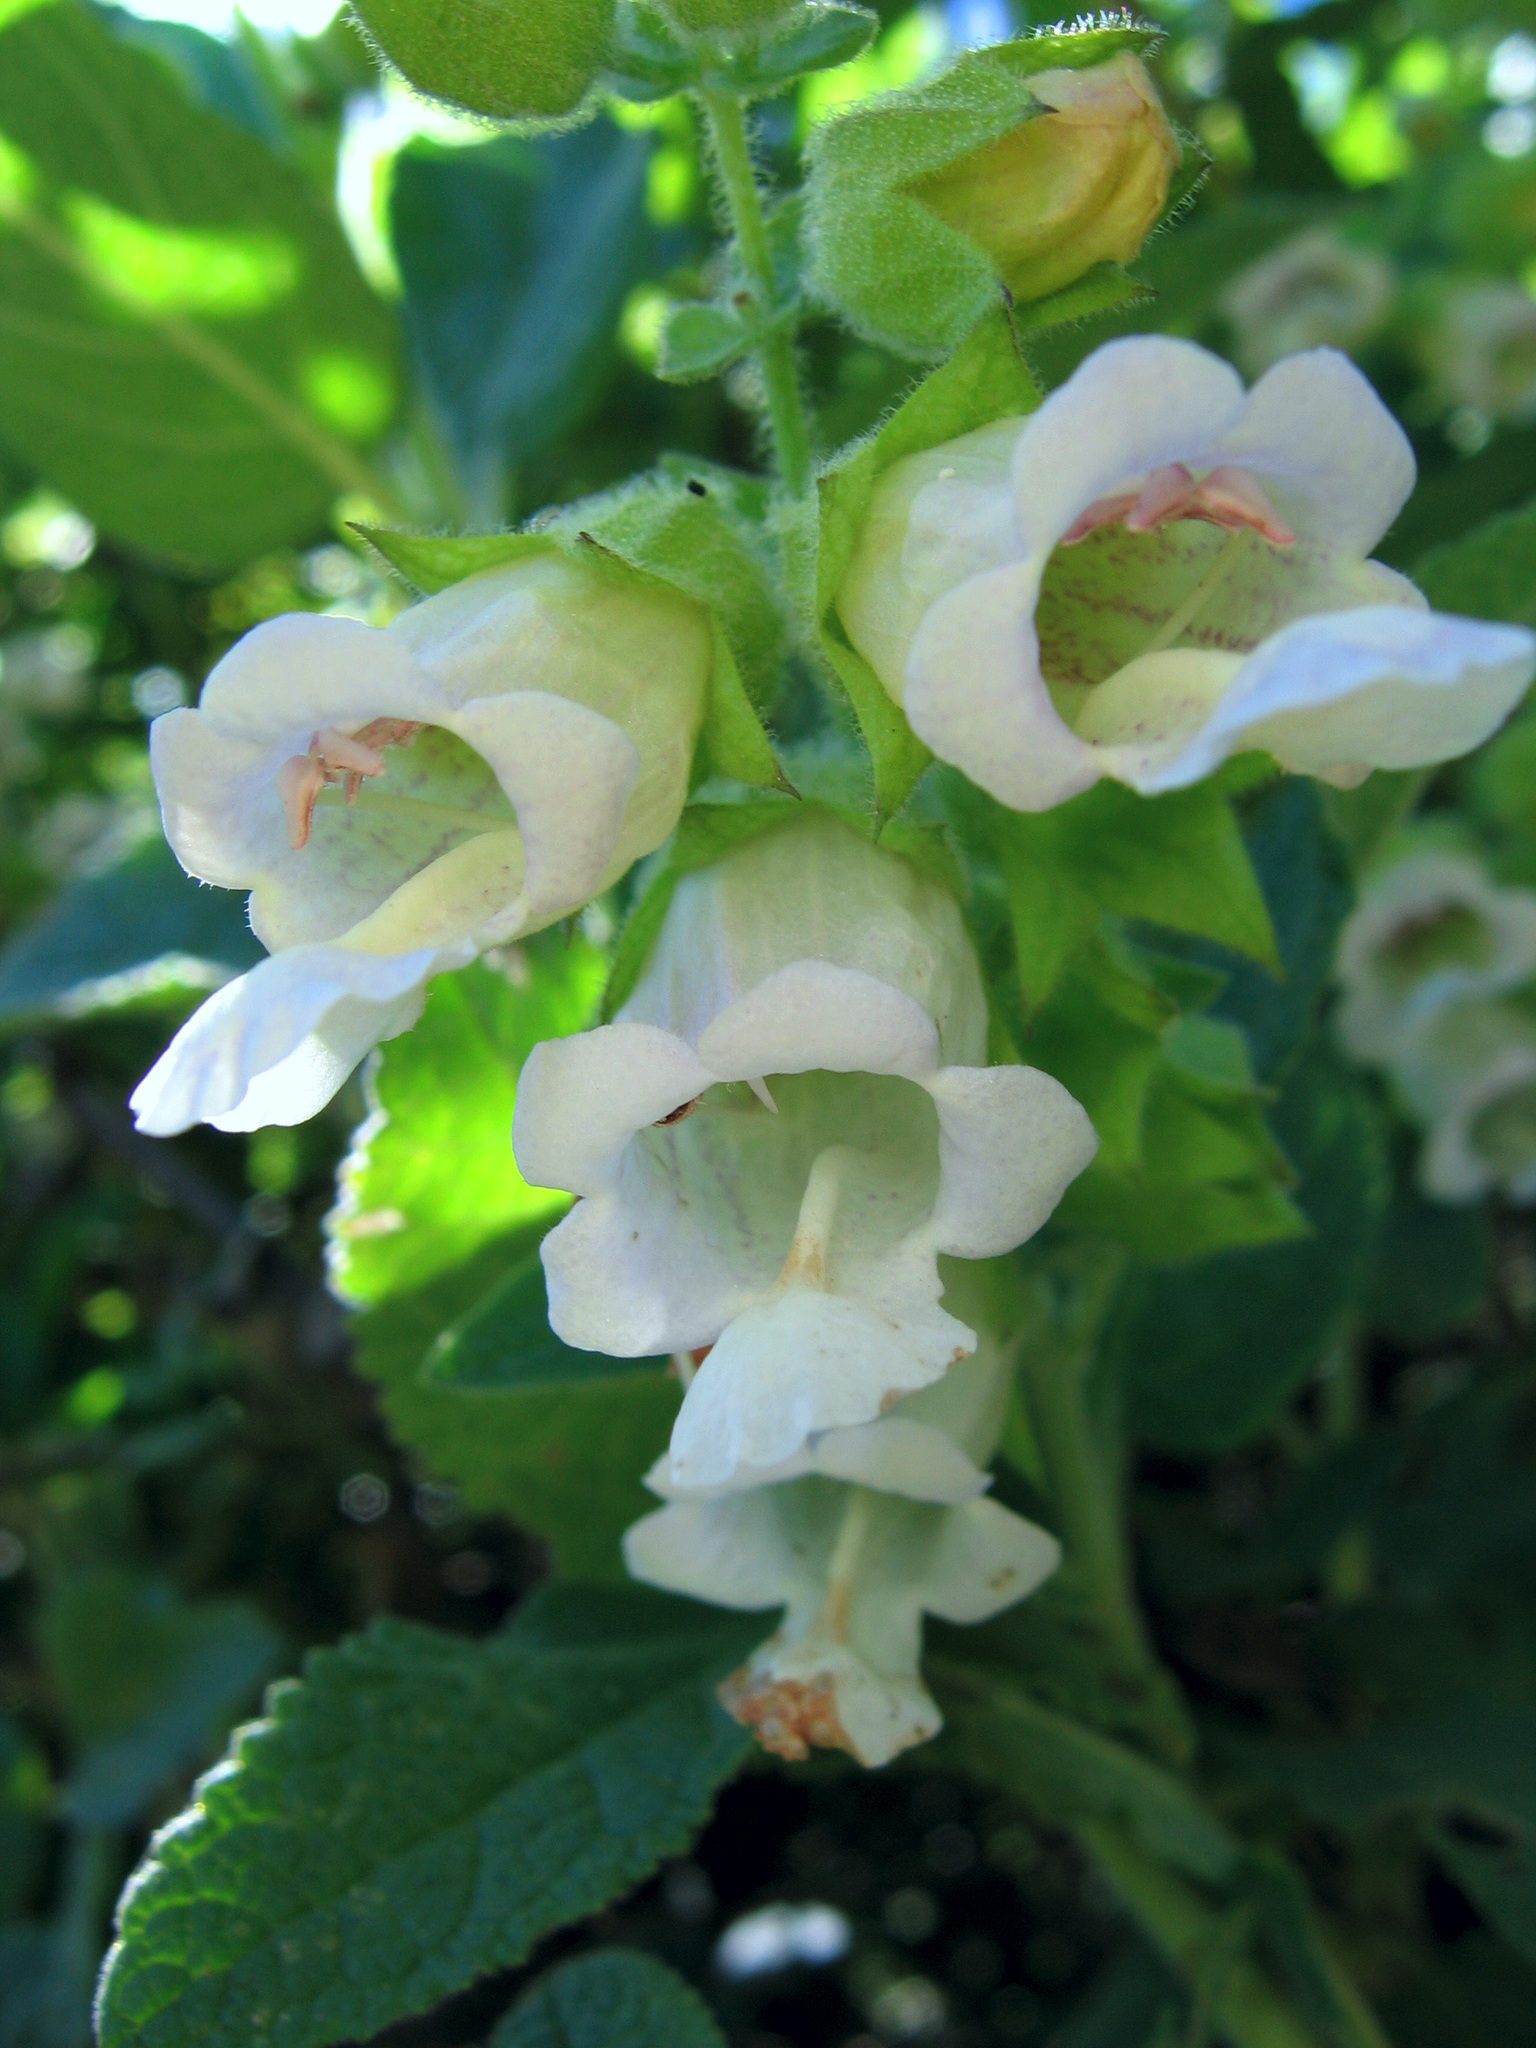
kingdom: Plantae
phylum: Tracheophyta
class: Magnoliopsida
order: Lamiales
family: Lamiaceae
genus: Lepechinia
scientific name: Lepechinia calycina
